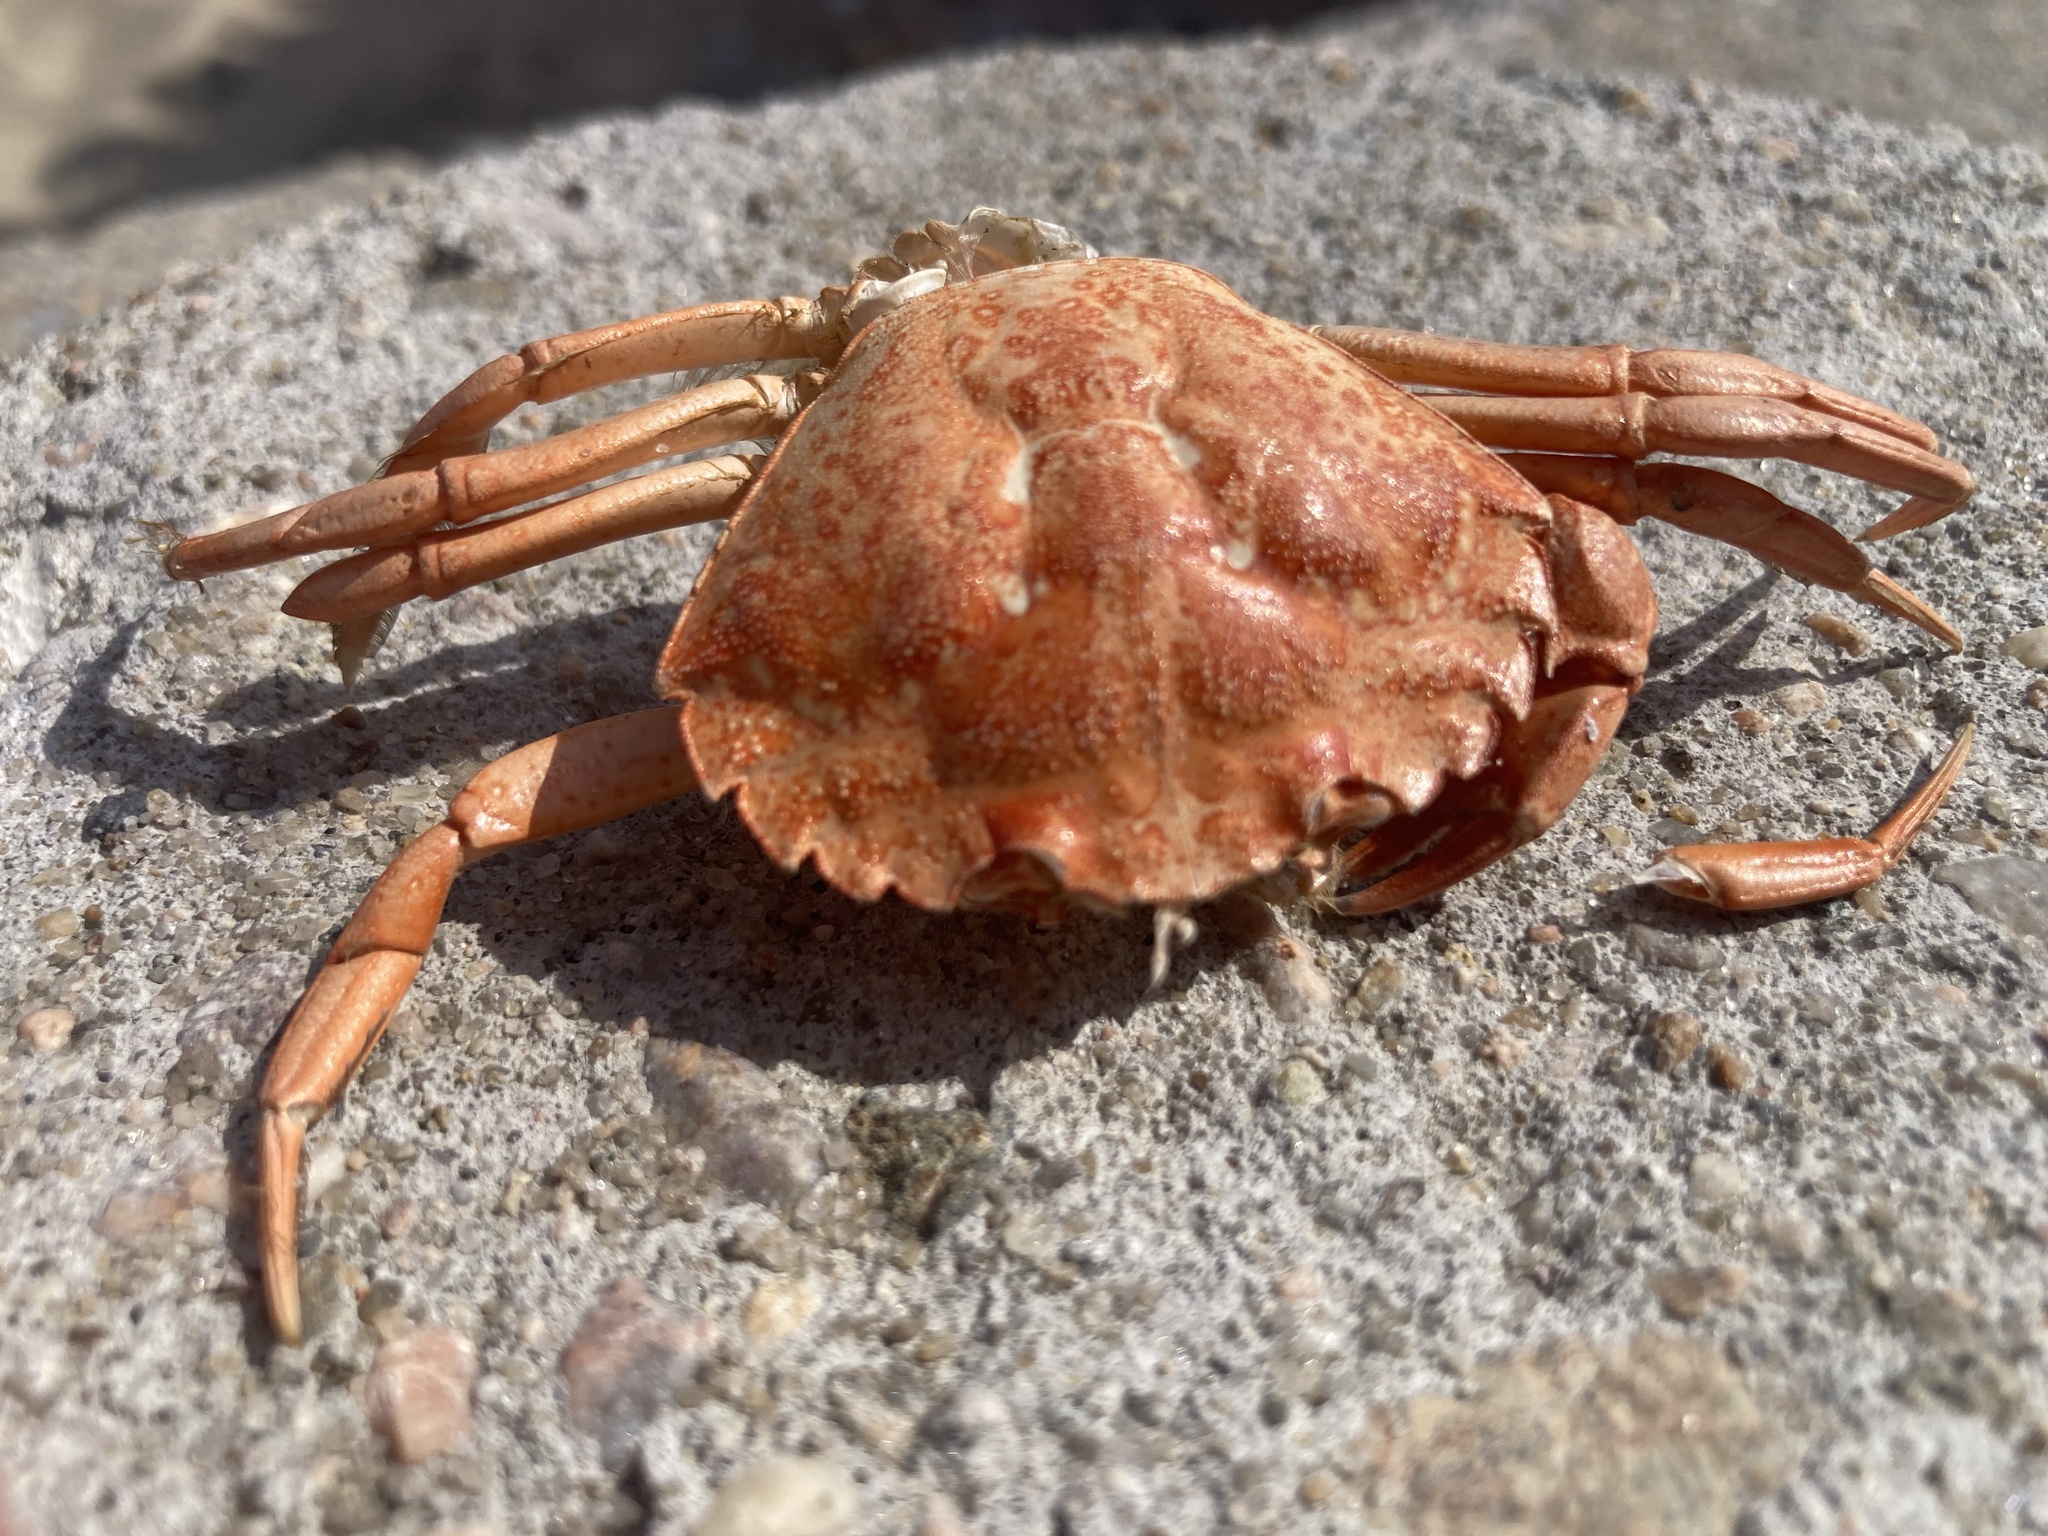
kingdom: Animalia
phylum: Arthropoda
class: Malacostraca
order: Decapoda
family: Carcinidae
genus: Carcinus
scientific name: Carcinus maenas
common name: European green crab
